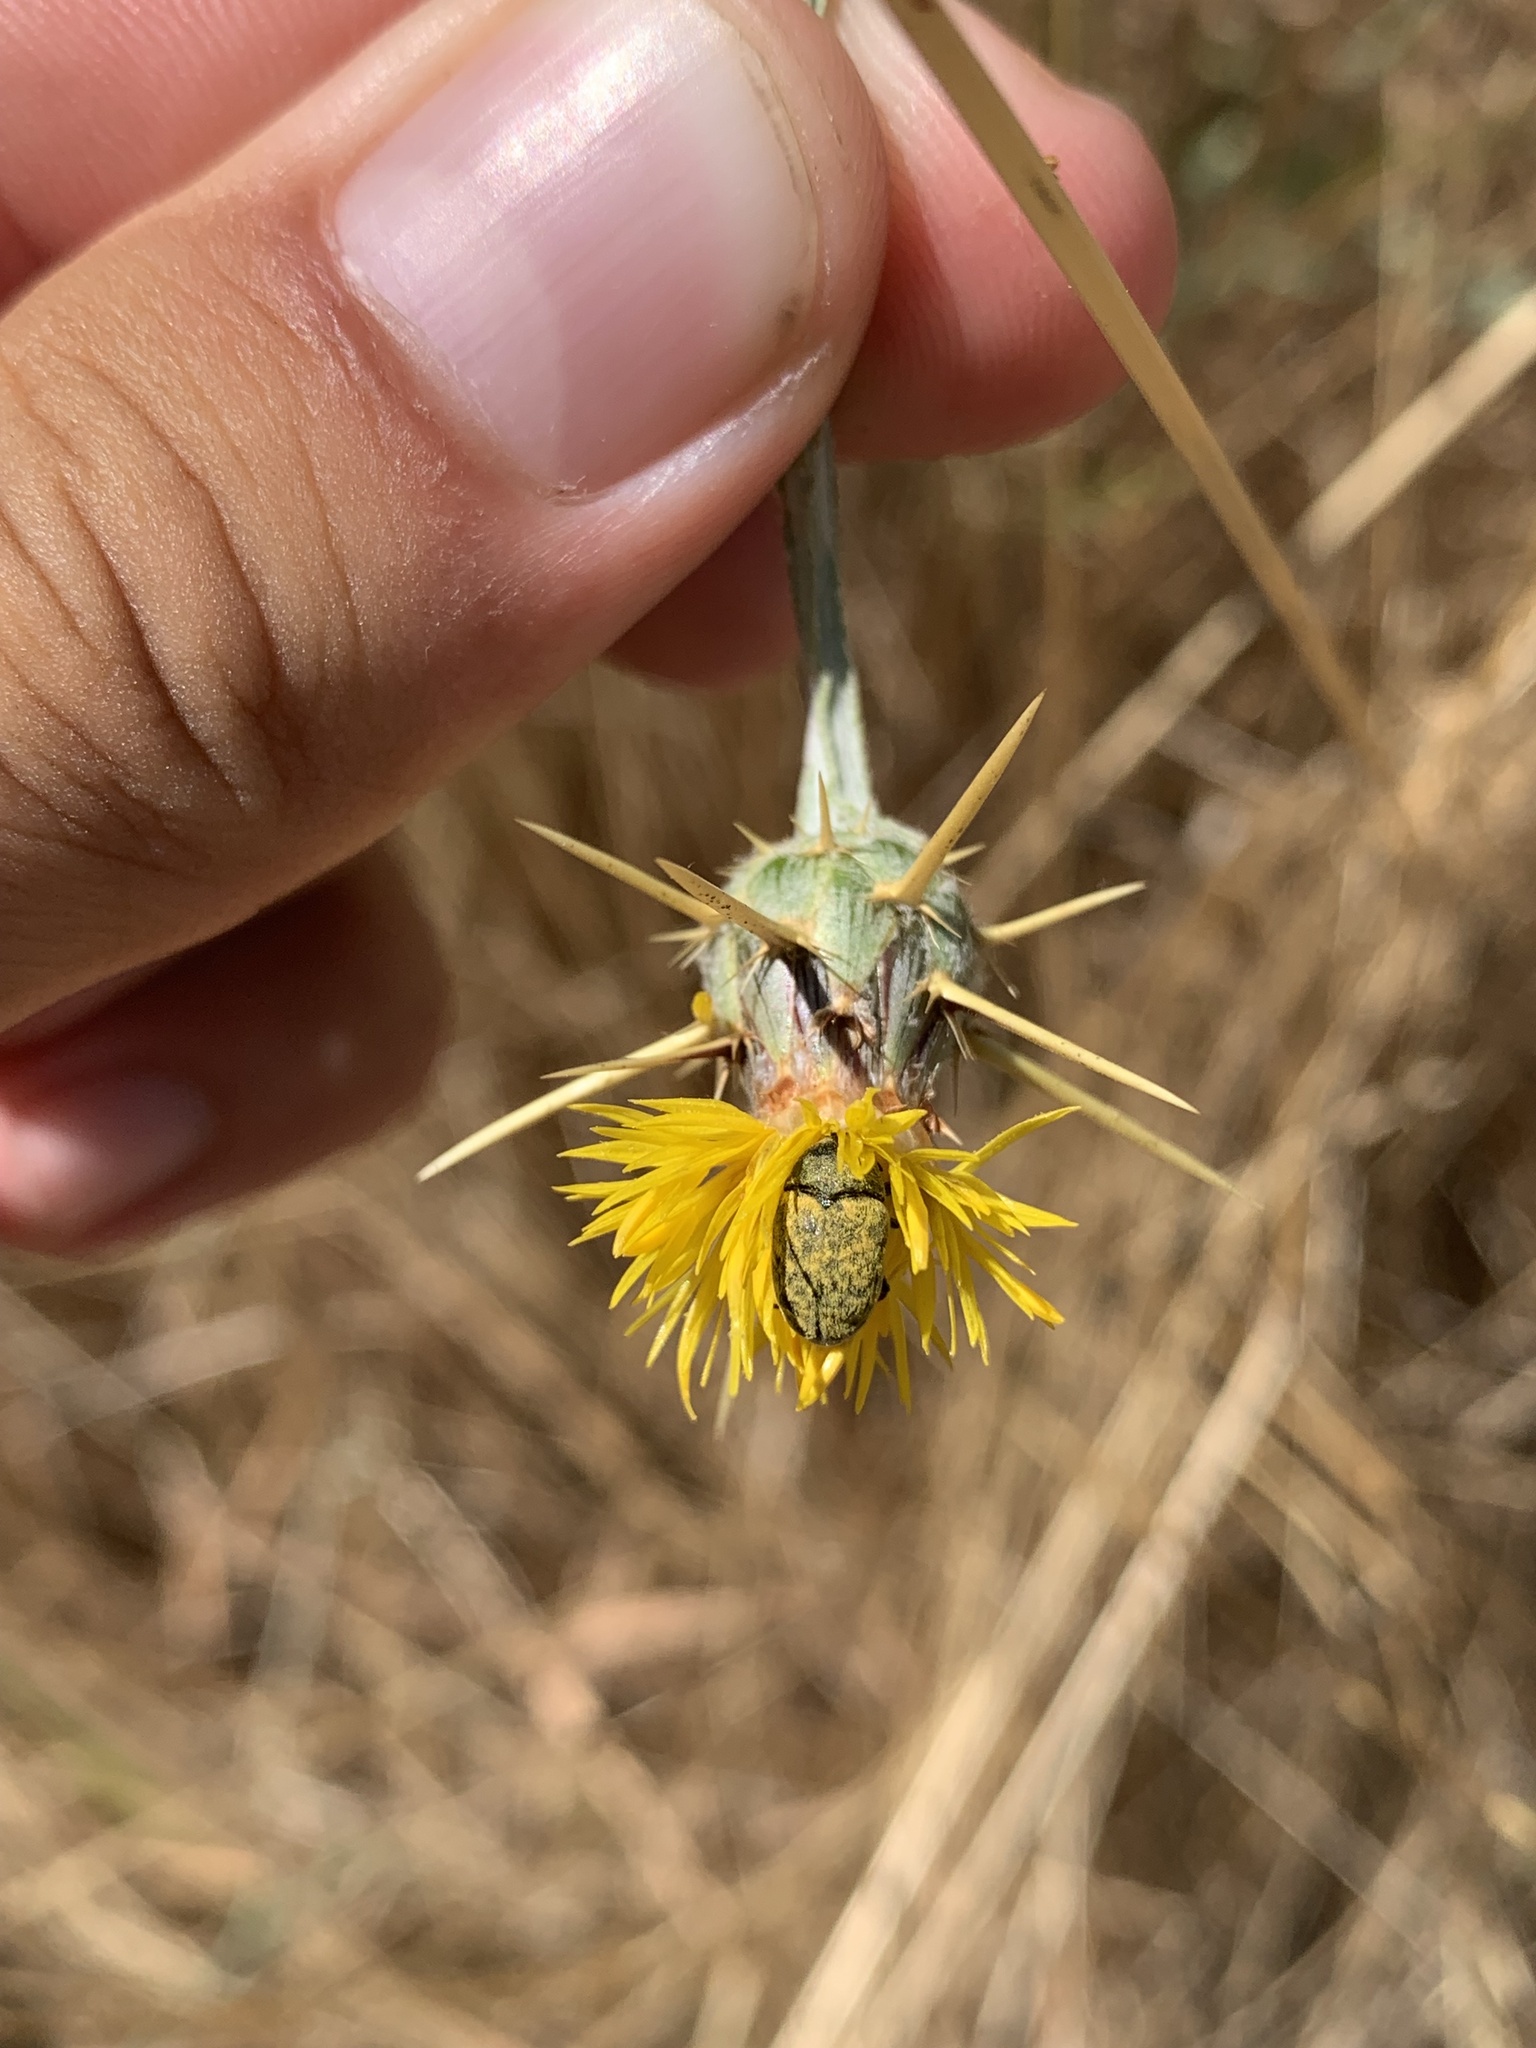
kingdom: Animalia
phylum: Arthropoda
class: Insecta
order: Coleoptera
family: Curculionidae
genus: Larinus
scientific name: Larinus curtus
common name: Weevil
